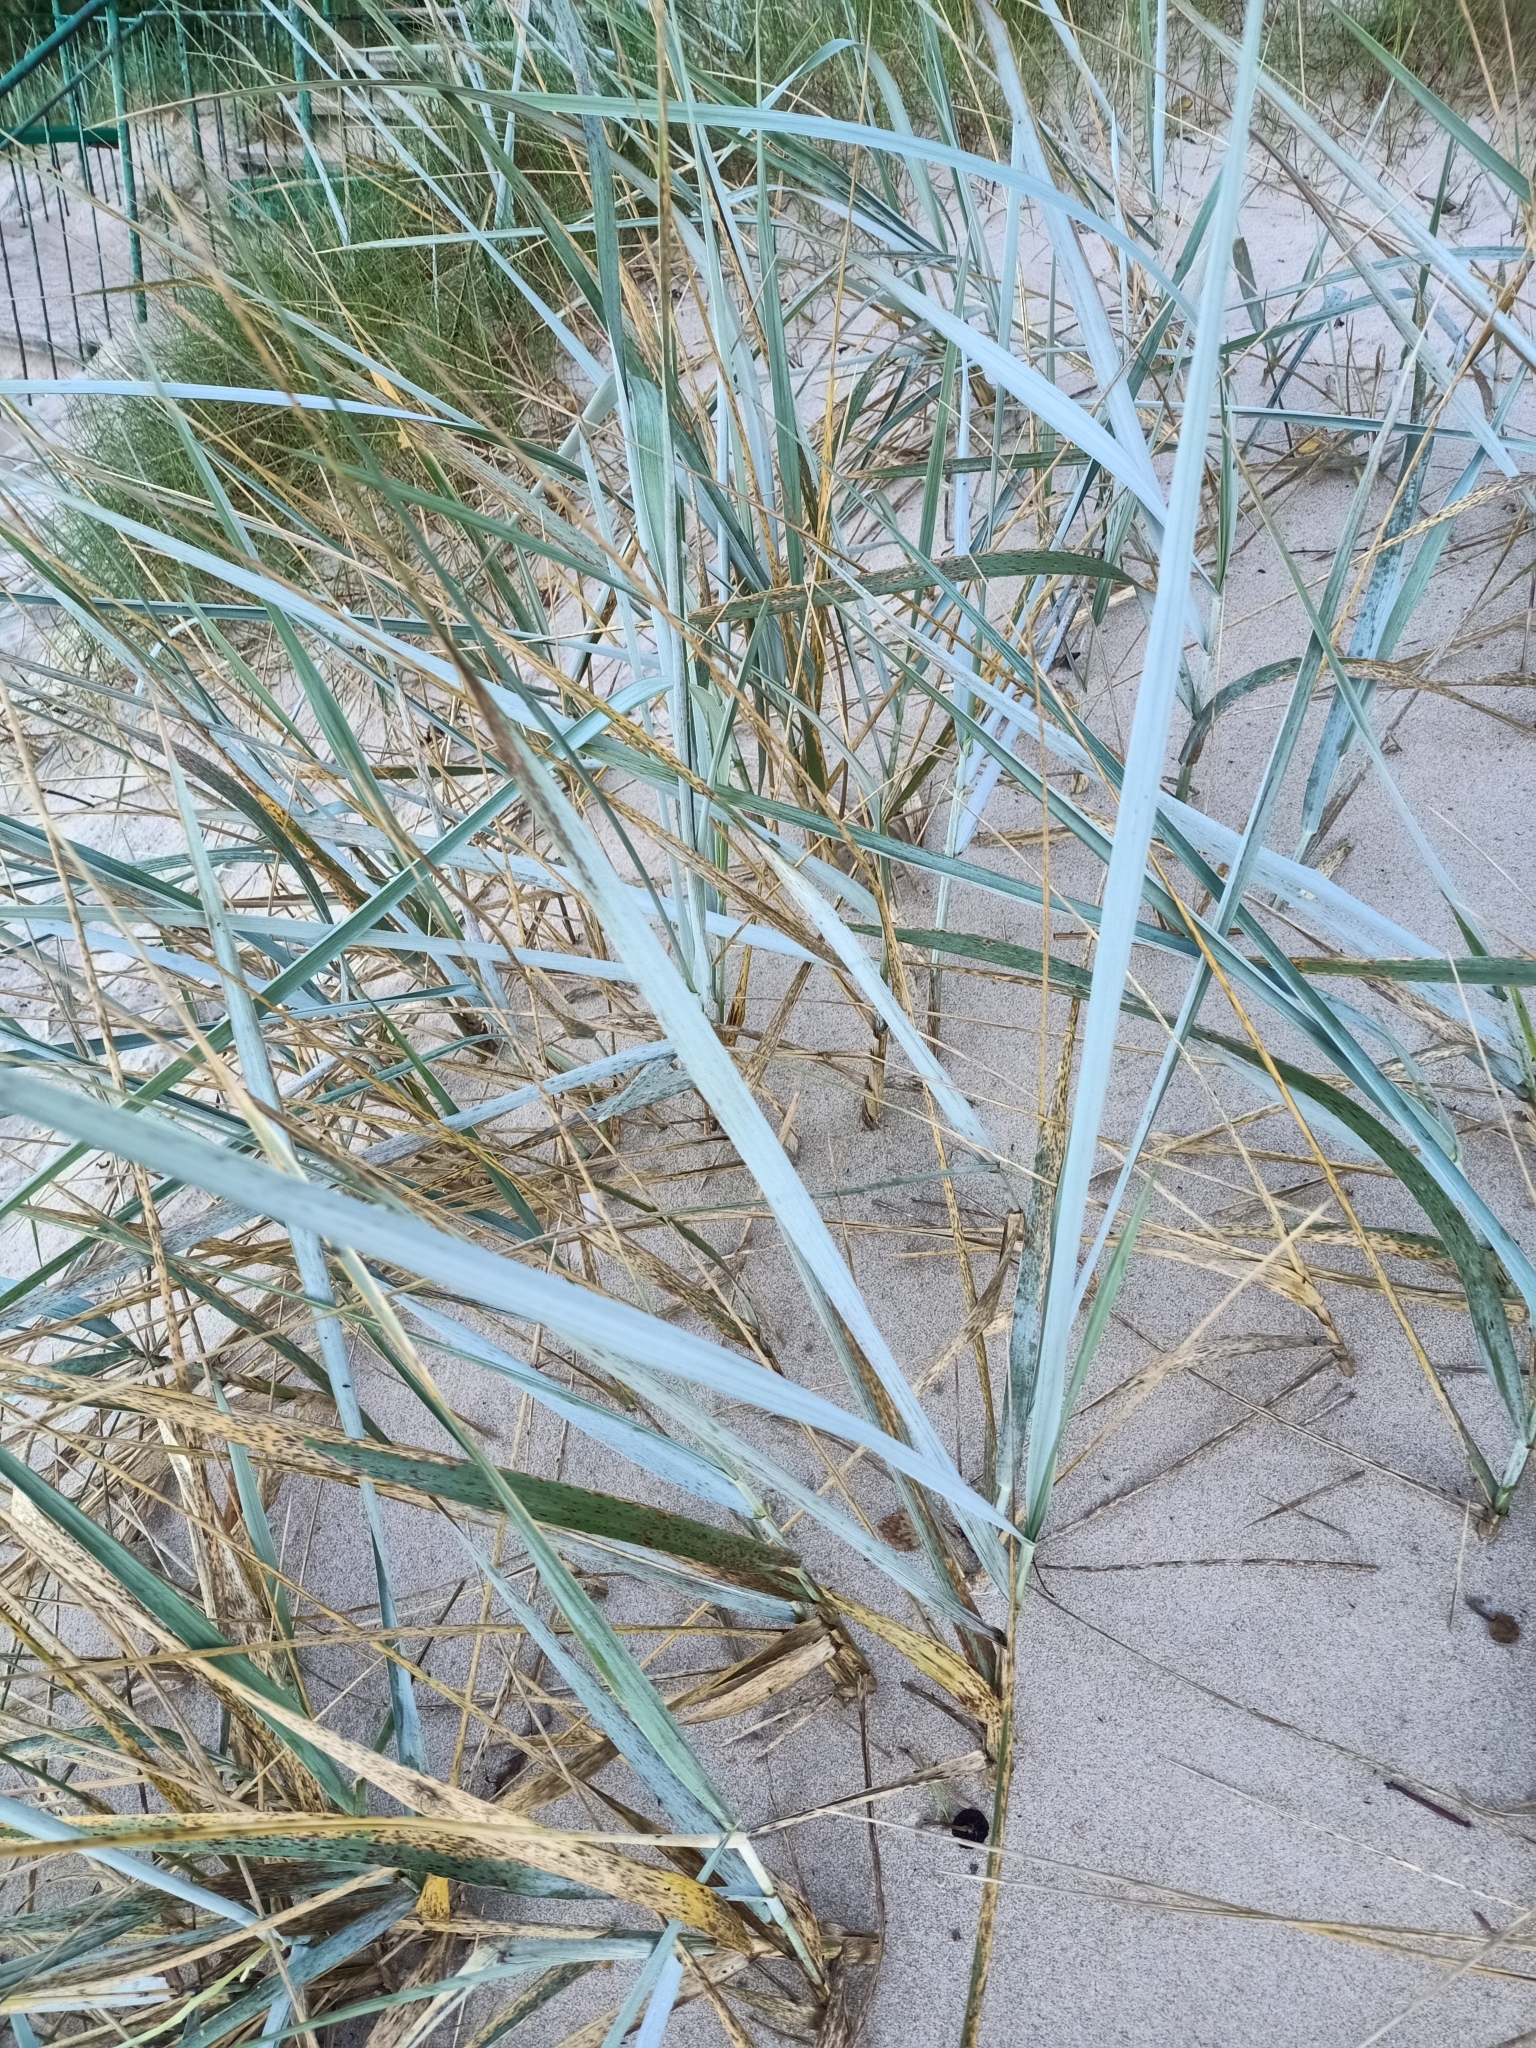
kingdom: Plantae
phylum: Tracheophyta
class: Liliopsida
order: Poales
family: Poaceae
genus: Leymus
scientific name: Leymus arenarius
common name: Lyme-grass
